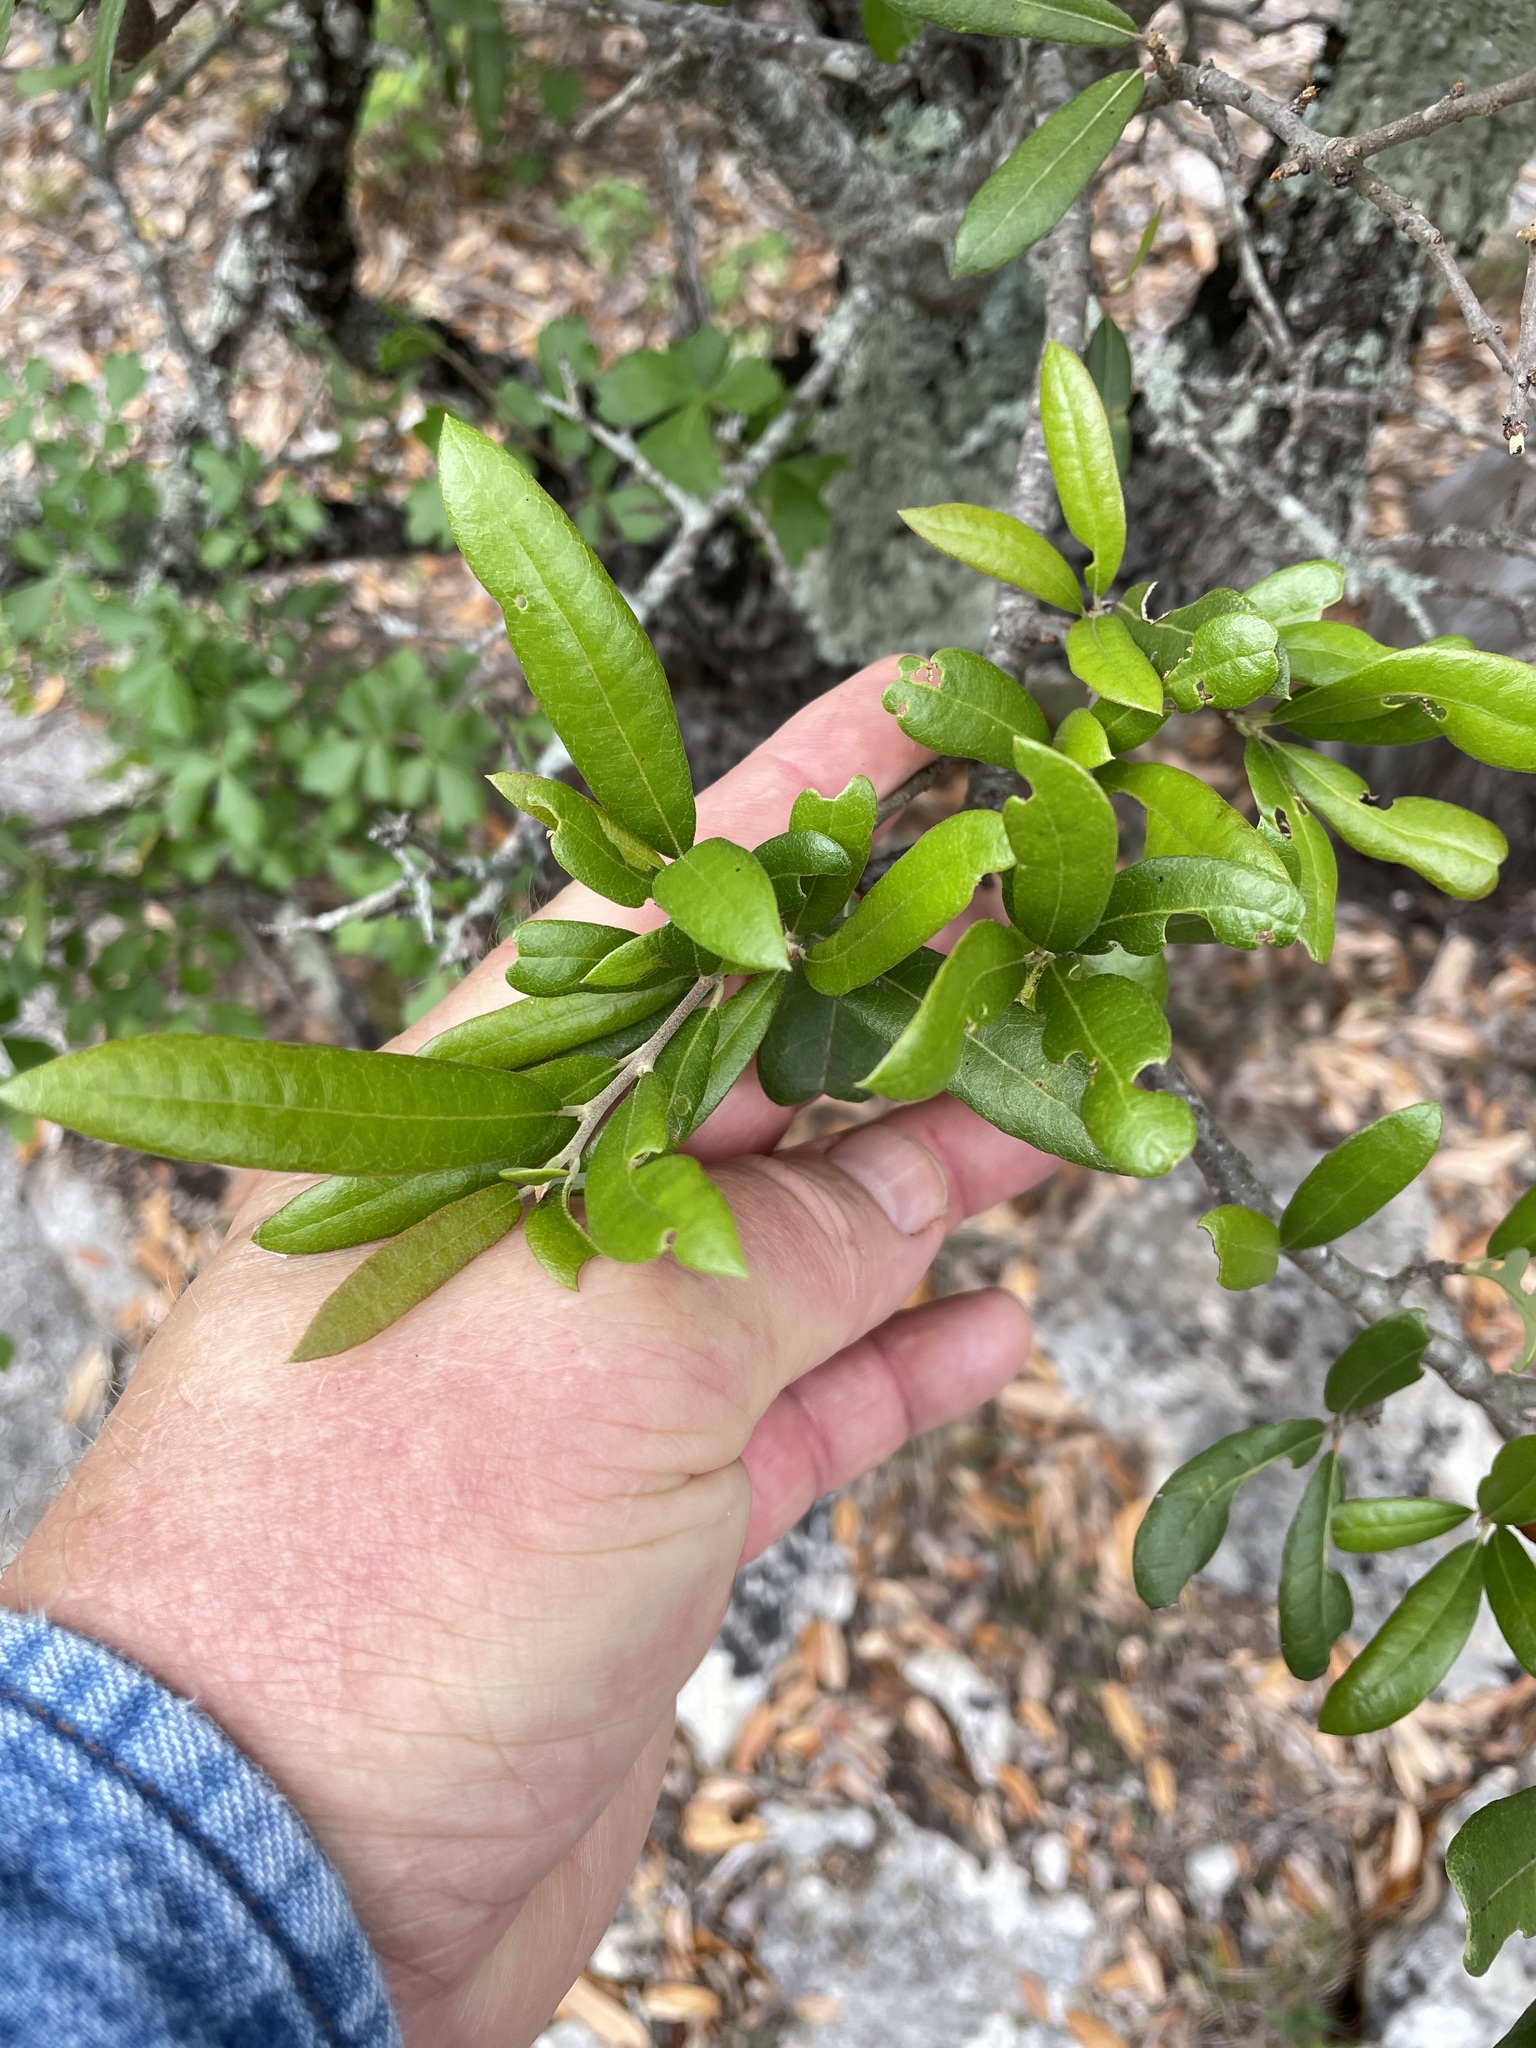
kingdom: Plantae
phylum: Tracheophyta
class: Magnoliopsida
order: Fagales
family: Fagaceae
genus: Quercus
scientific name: Quercus fusiformis
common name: Texas live oak
